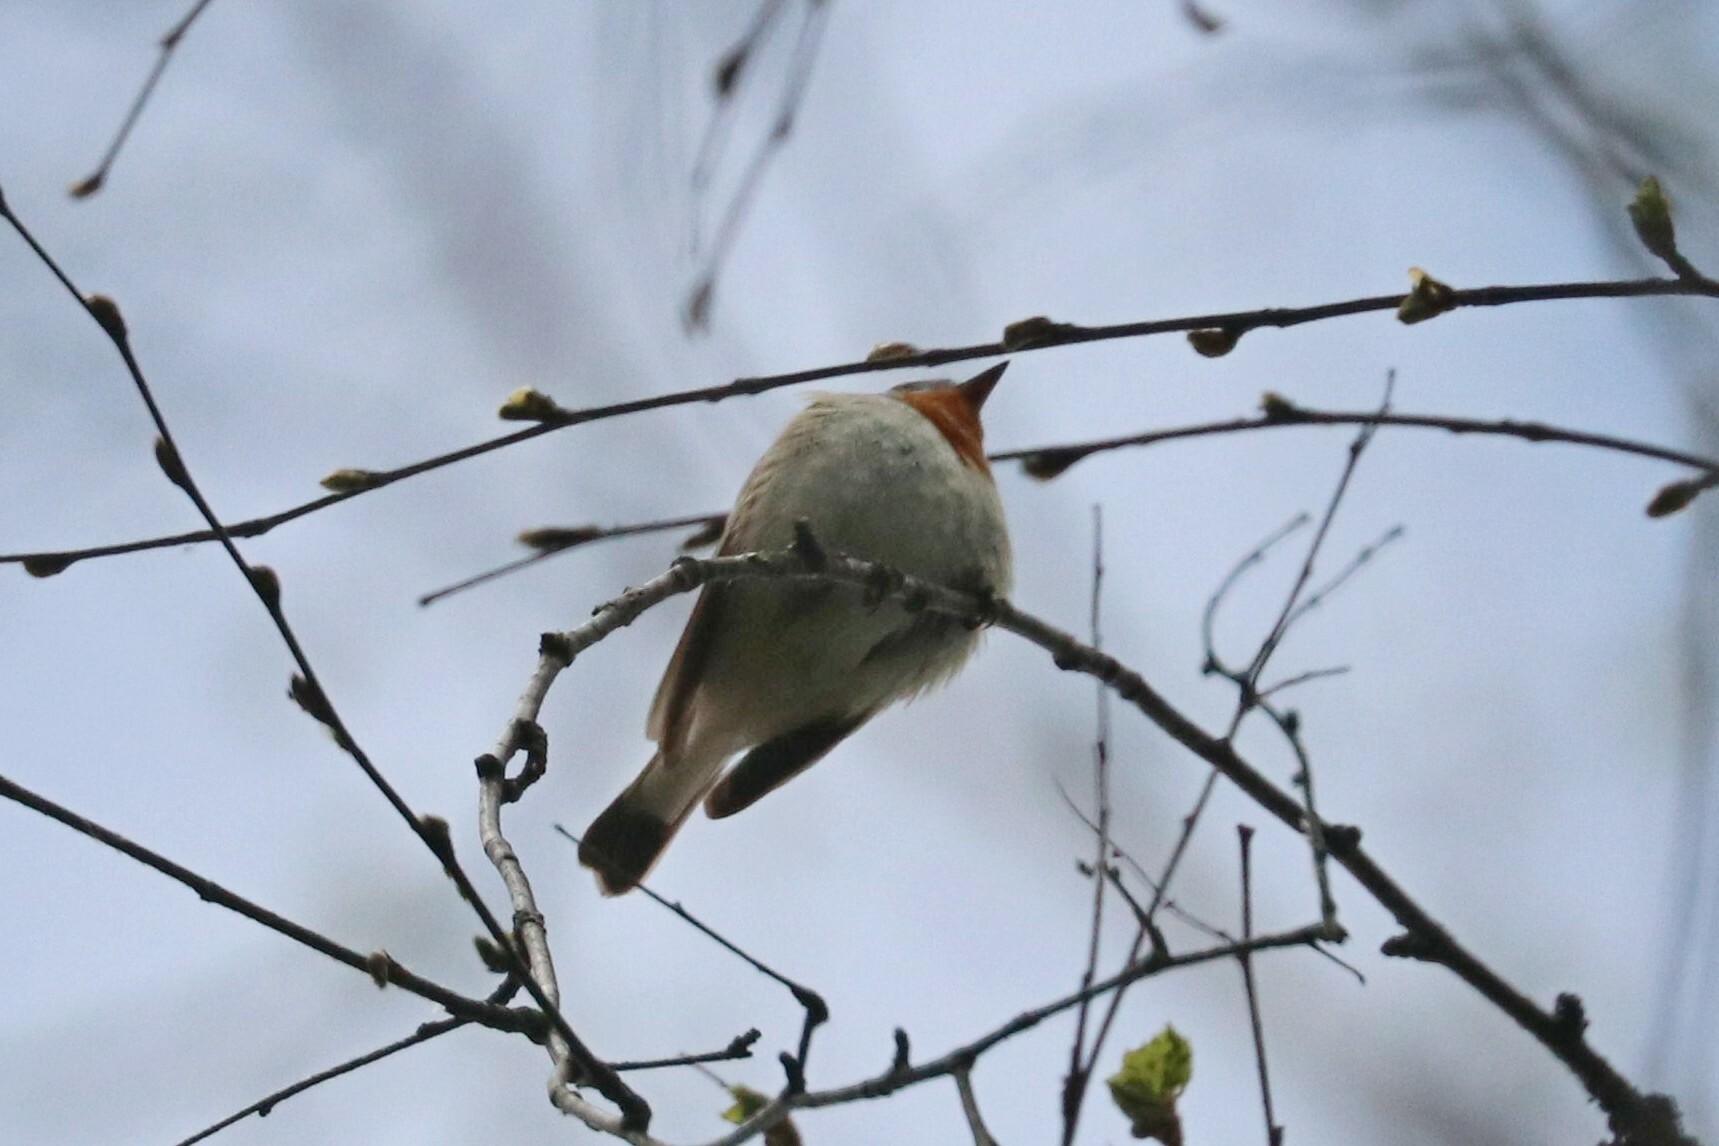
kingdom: Animalia
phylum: Chordata
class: Aves
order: Passeriformes
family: Muscicapidae
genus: Ficedula
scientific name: Ficedula parva
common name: Red-breasted flycatcher
